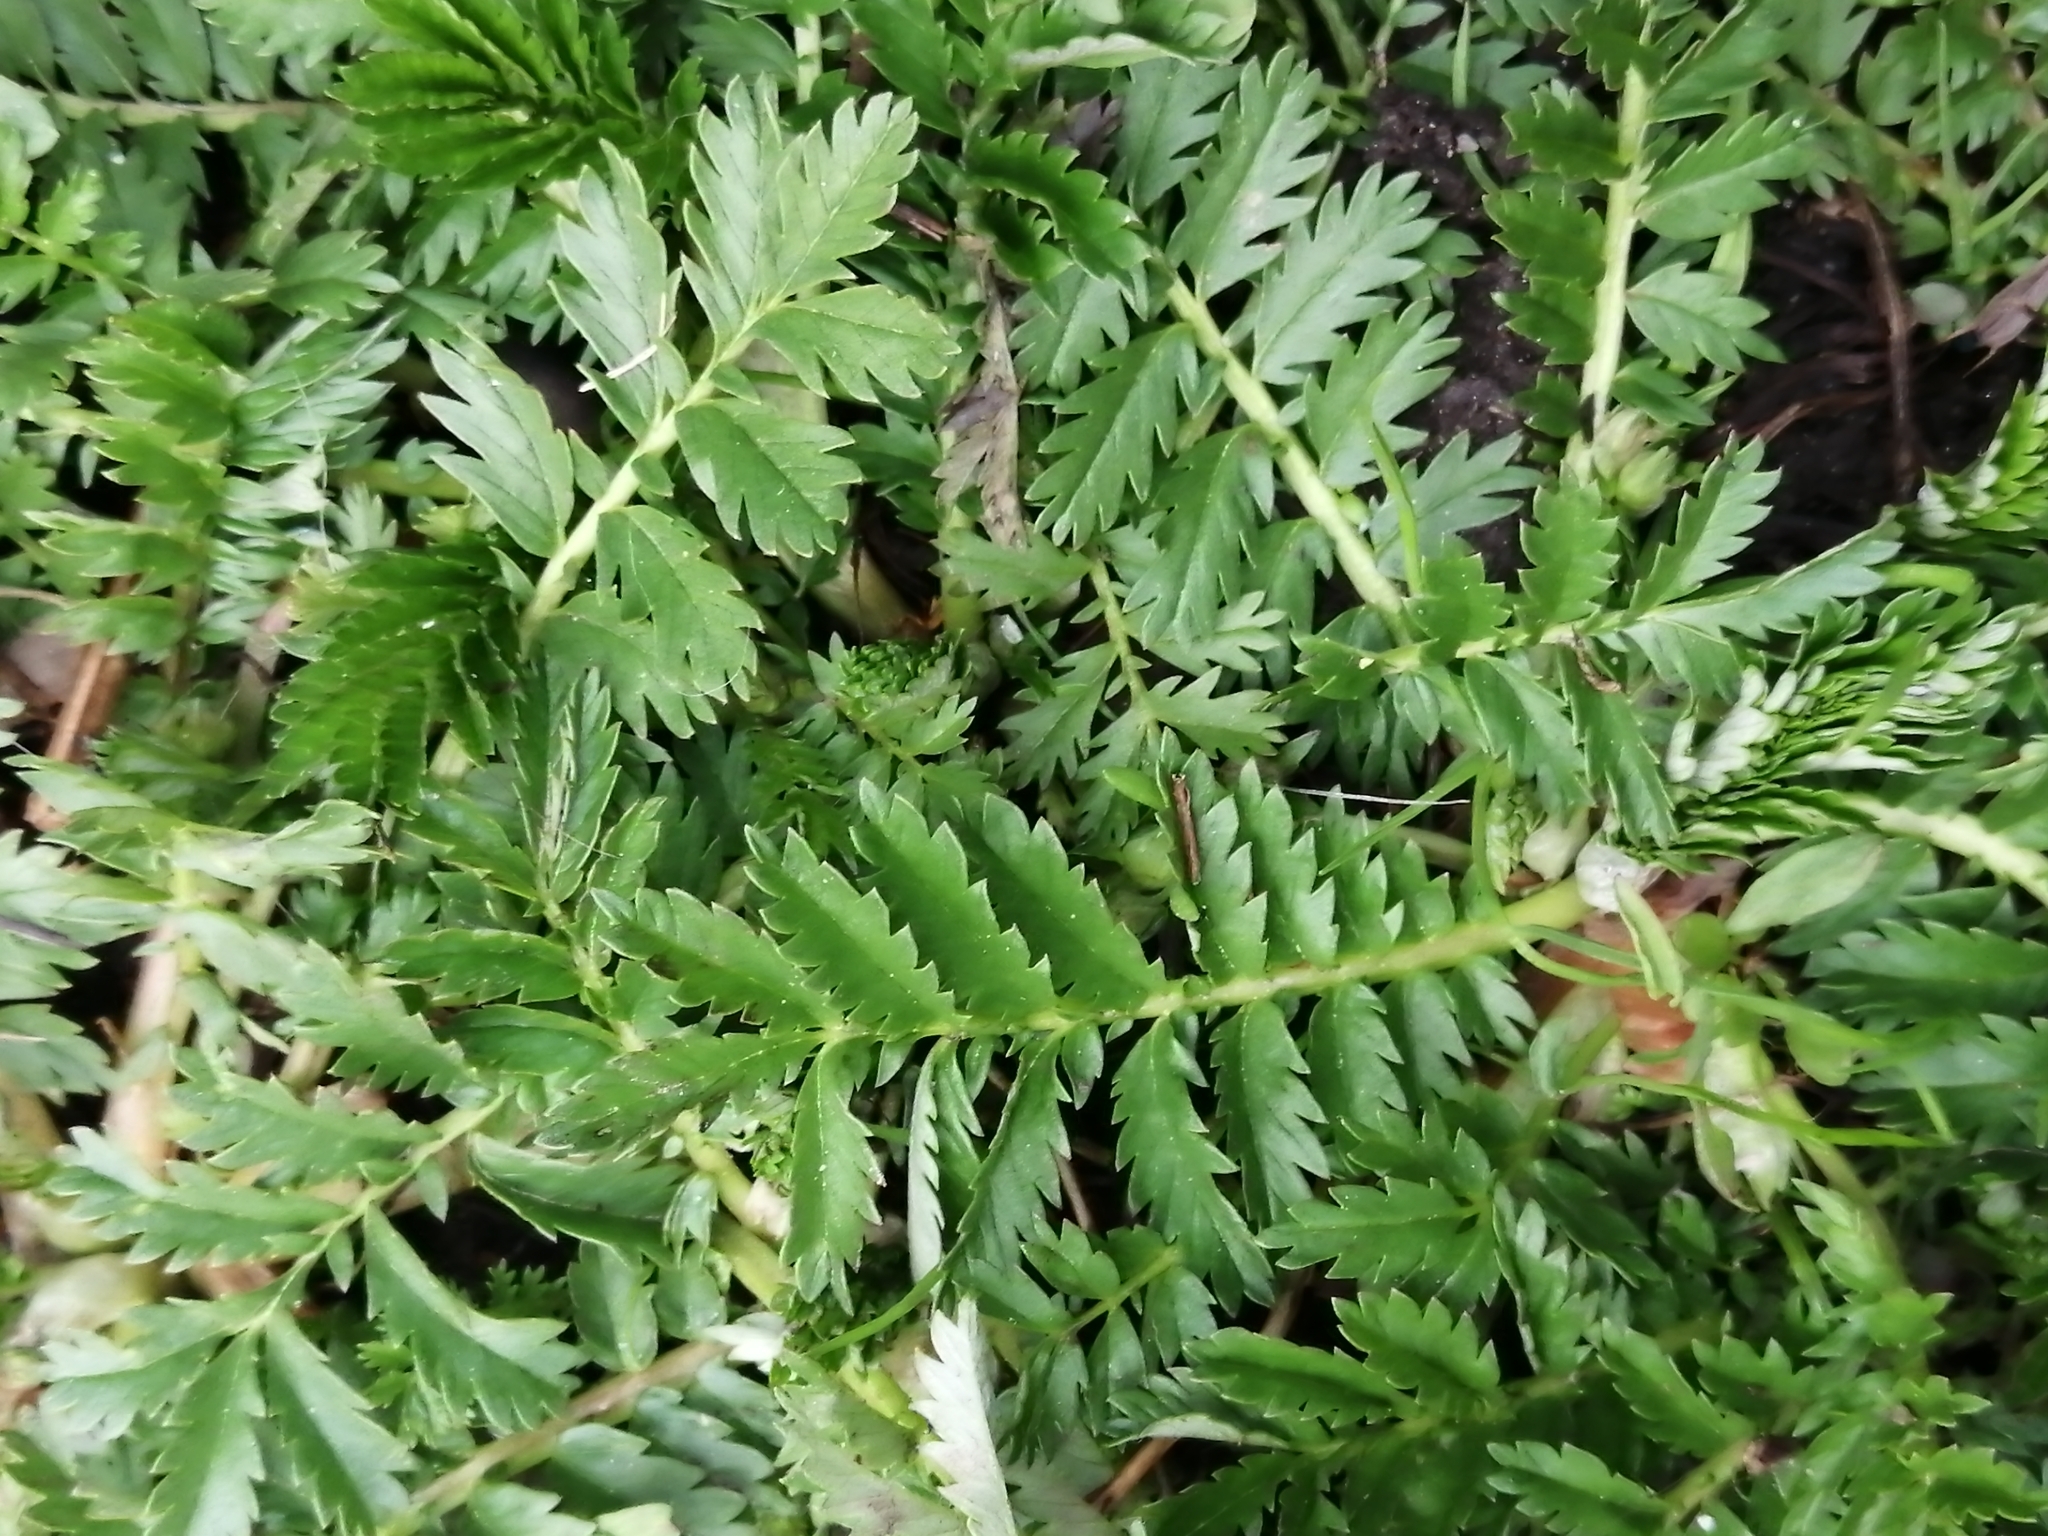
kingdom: Plantae
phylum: Tracheophyta
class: Magnoliopsida
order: Rosales
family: Rosaceae
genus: Argentina
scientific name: Argentina anserina
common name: Common silverweed
